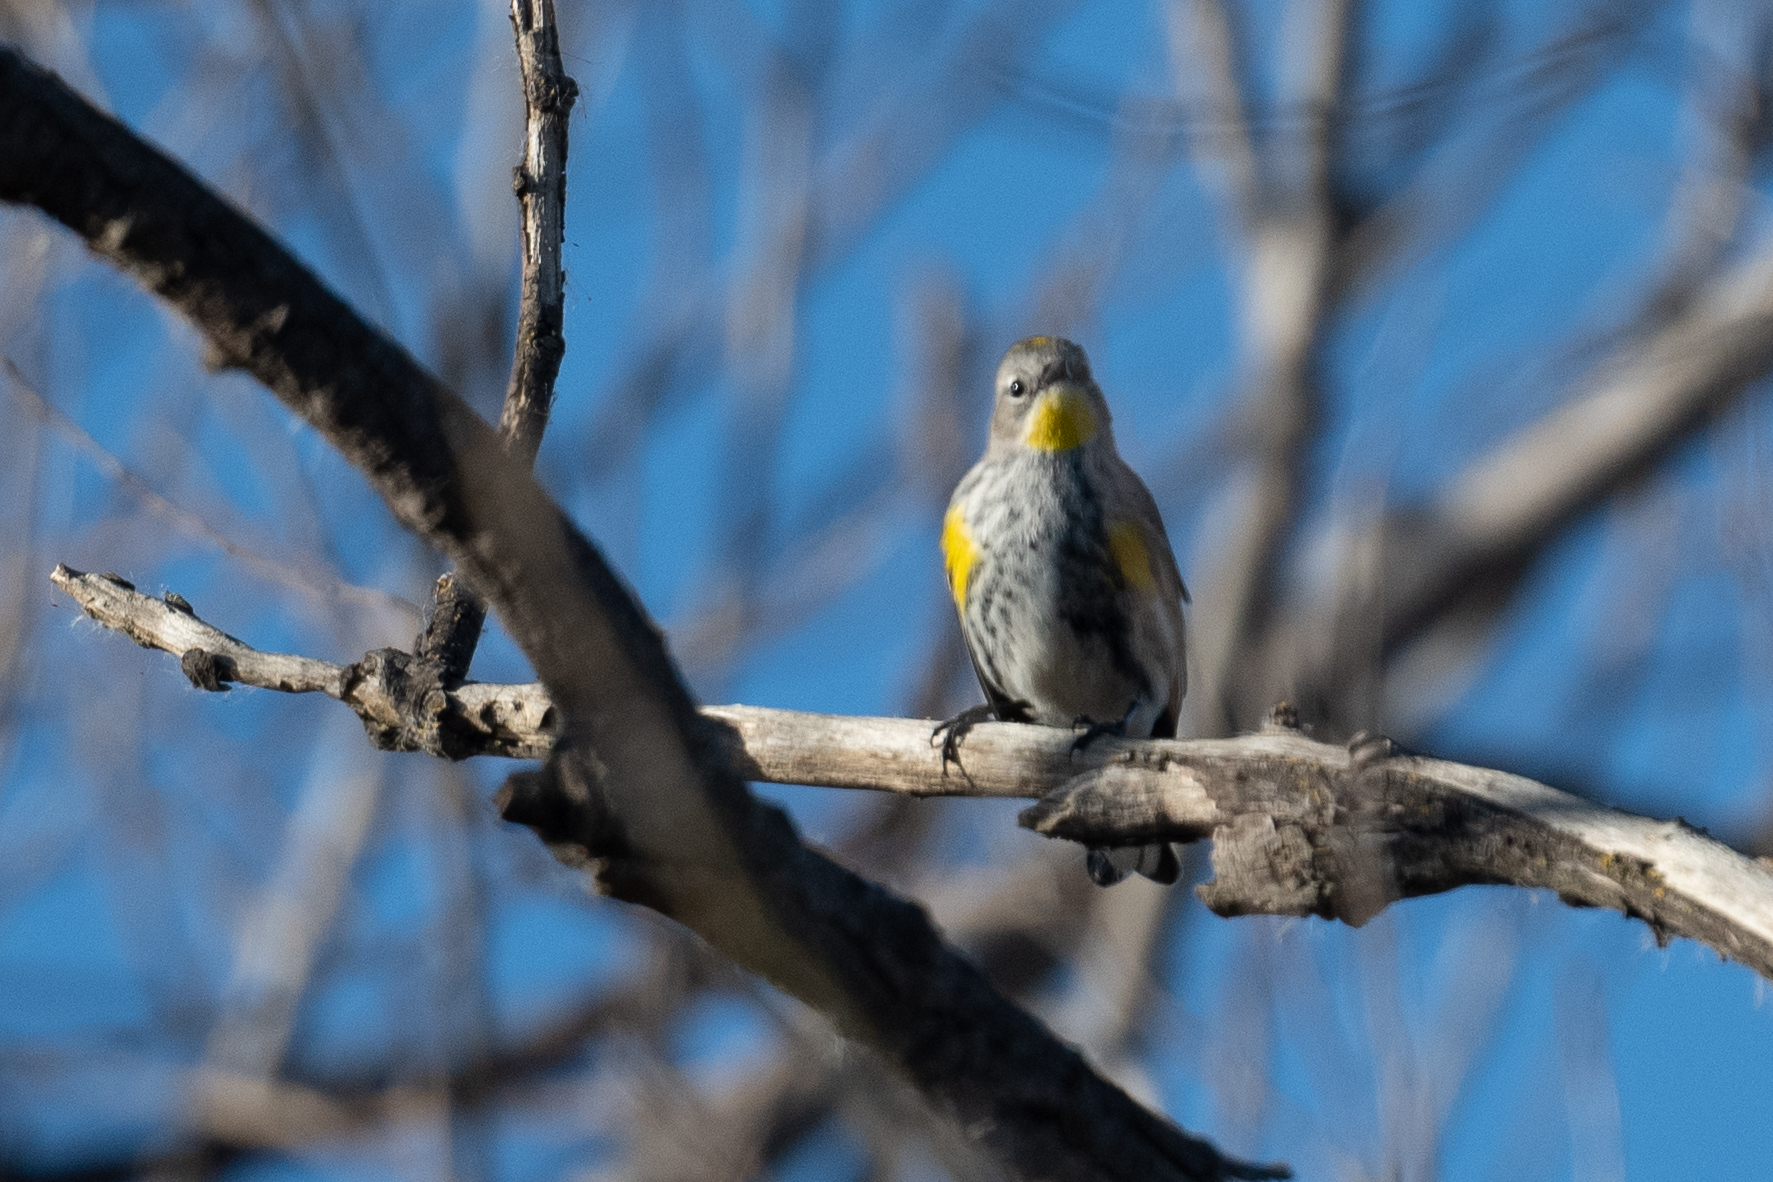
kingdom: Animalia
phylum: Chordata
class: Aves
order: Passeriformes
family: Parulidae
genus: Setophaga
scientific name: Setophaga coronata
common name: Myrtle warbler
